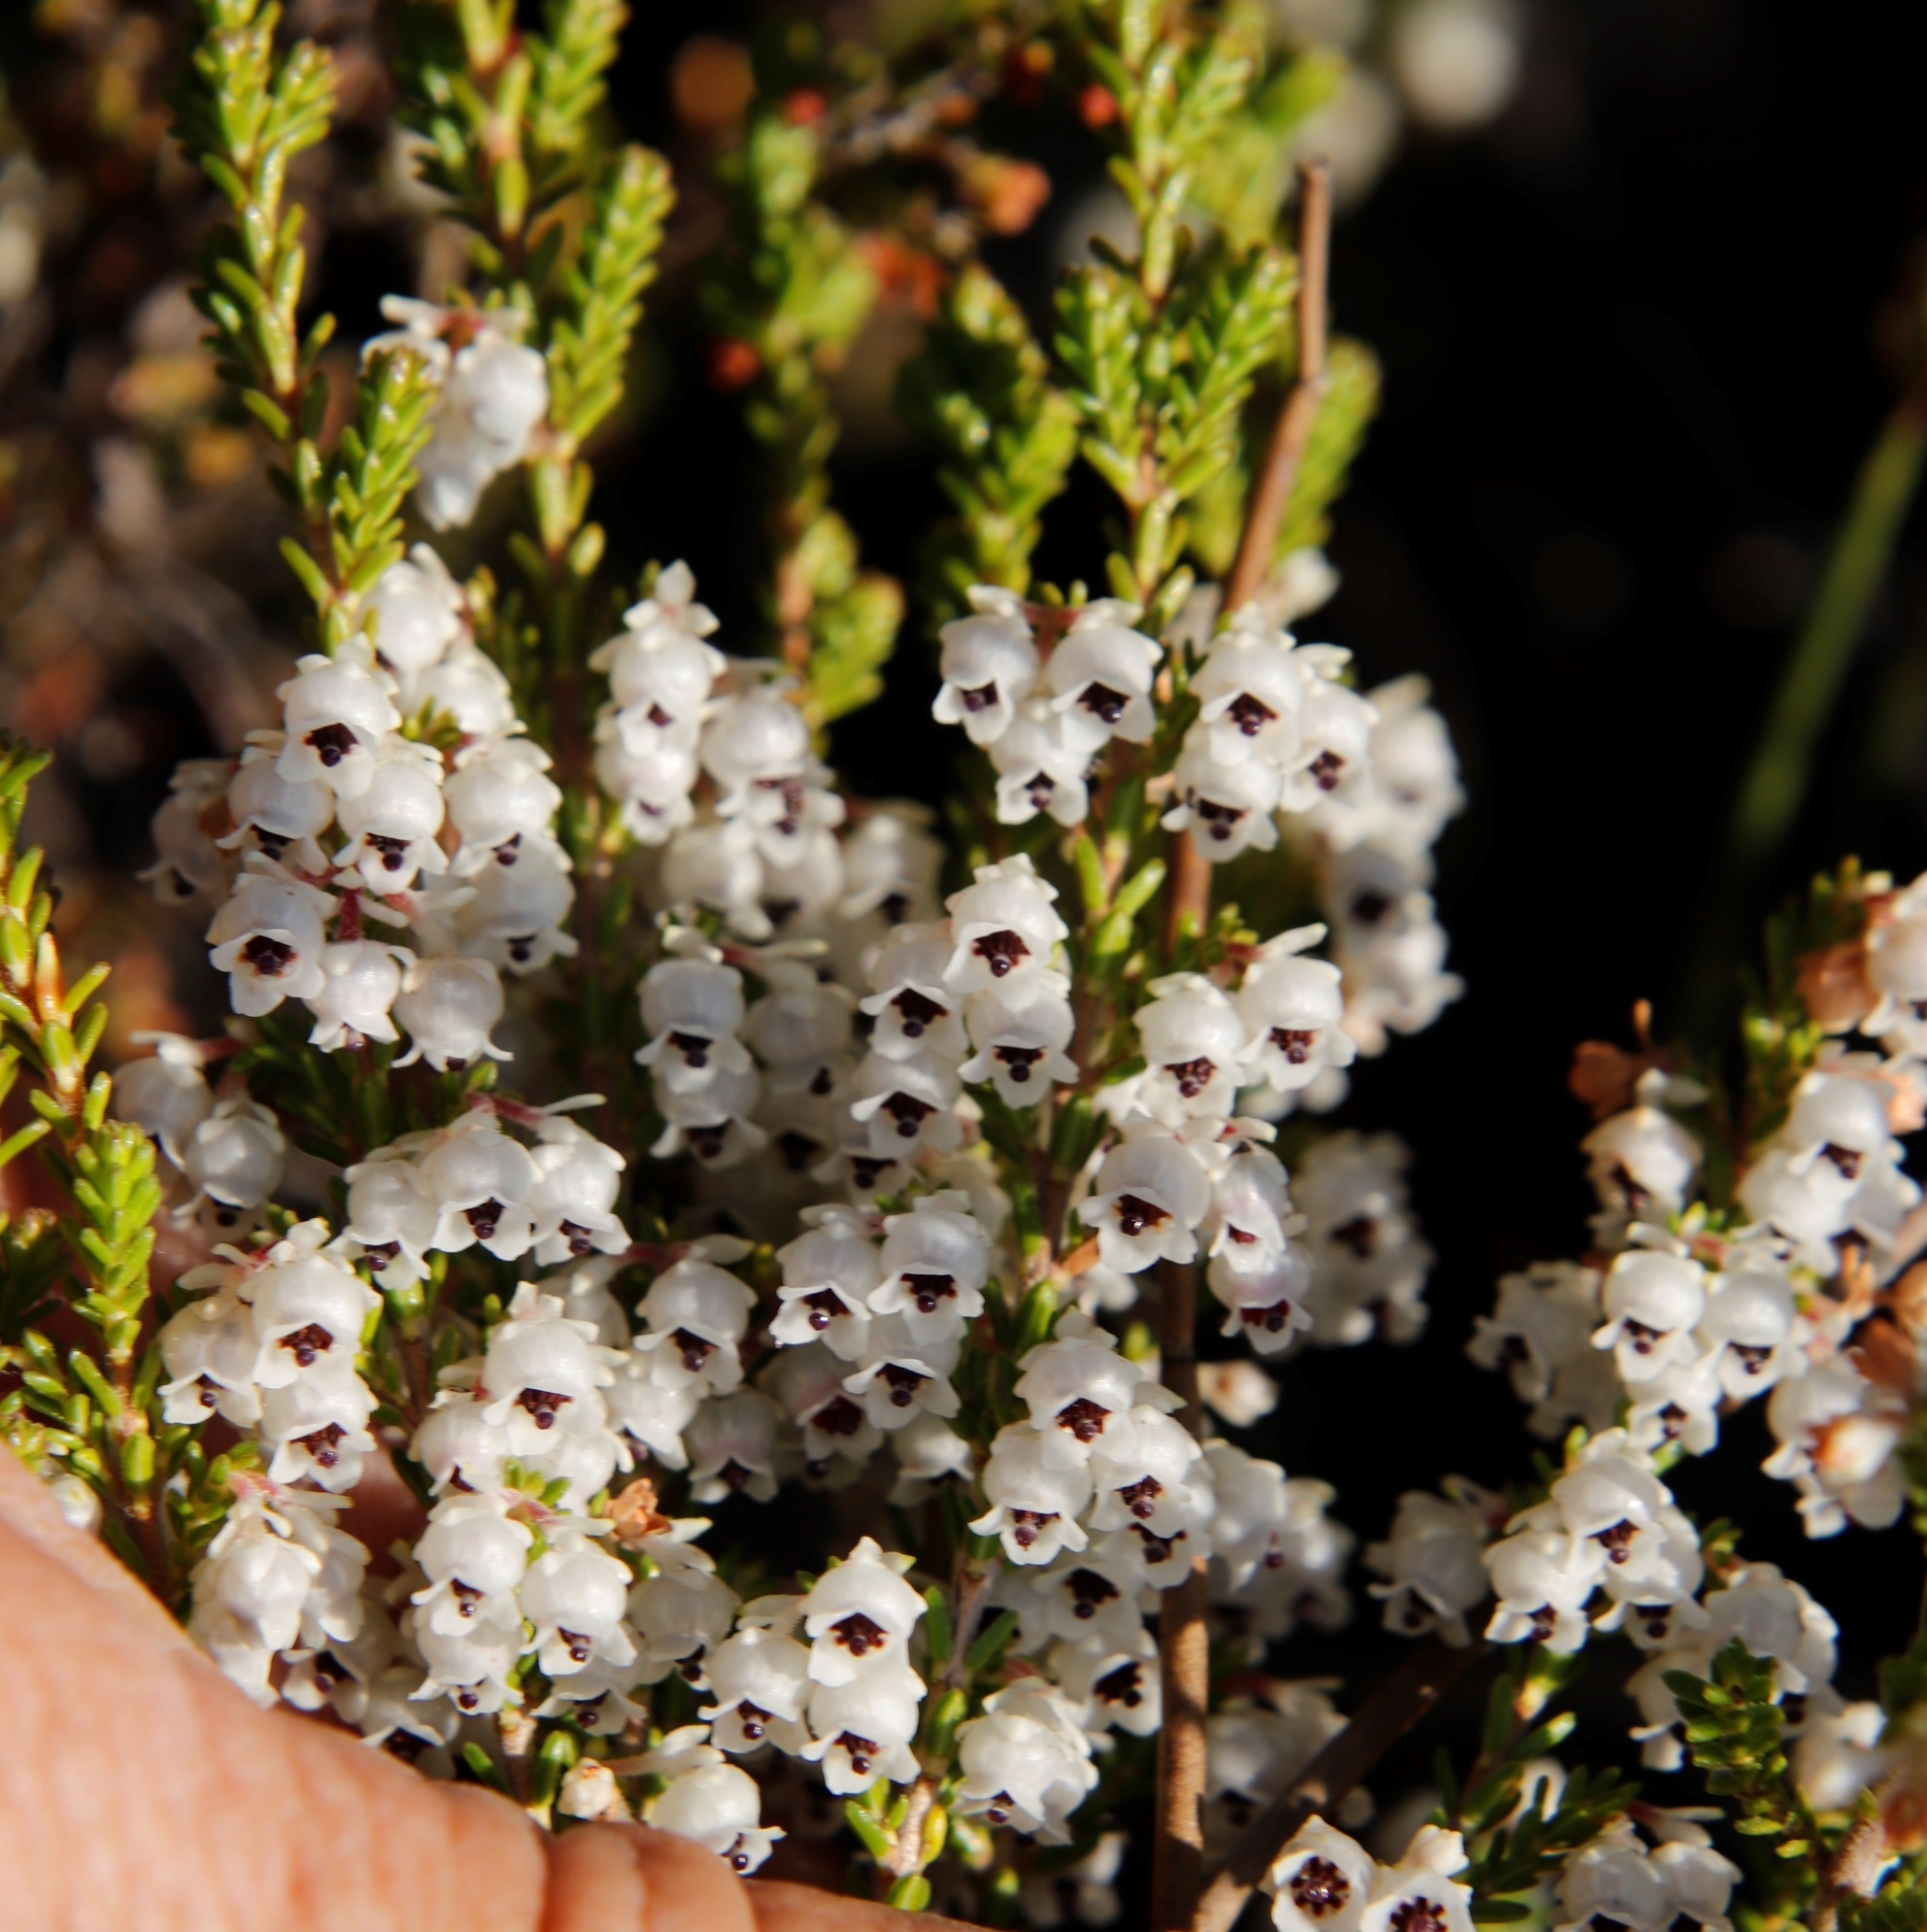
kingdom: Plantae
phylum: Tracheophyta
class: Magnoliopsida
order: Ericales
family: Ericaceae
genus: Erica
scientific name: Erica zwartbergensis
